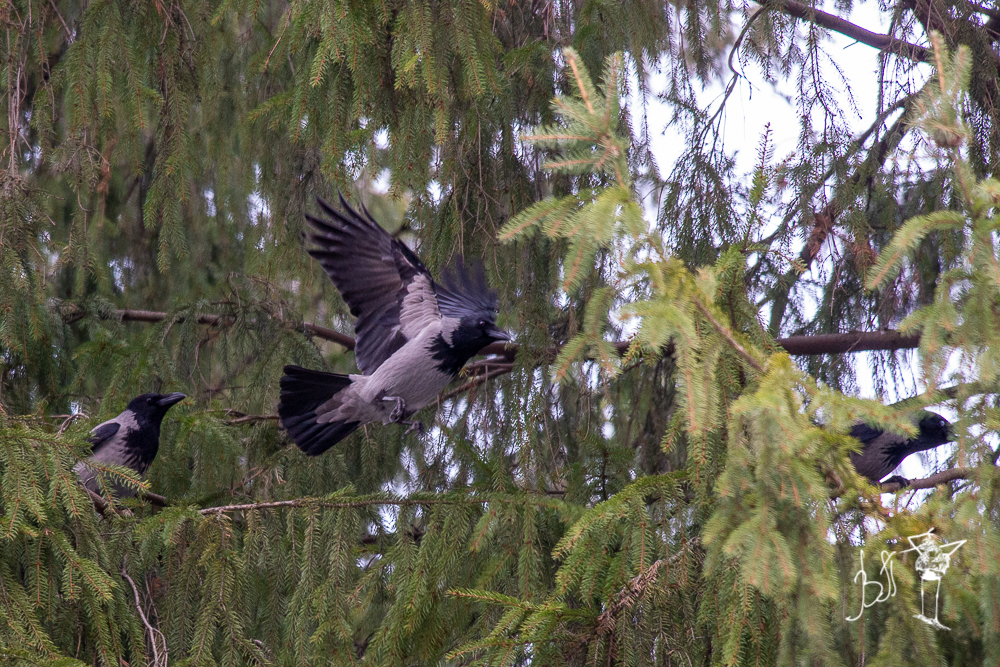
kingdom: Animalia
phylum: Chordata
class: Aves
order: Passeriformes
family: Corvidae
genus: Corvus
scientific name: Corvus cornix
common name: Hooded crow
